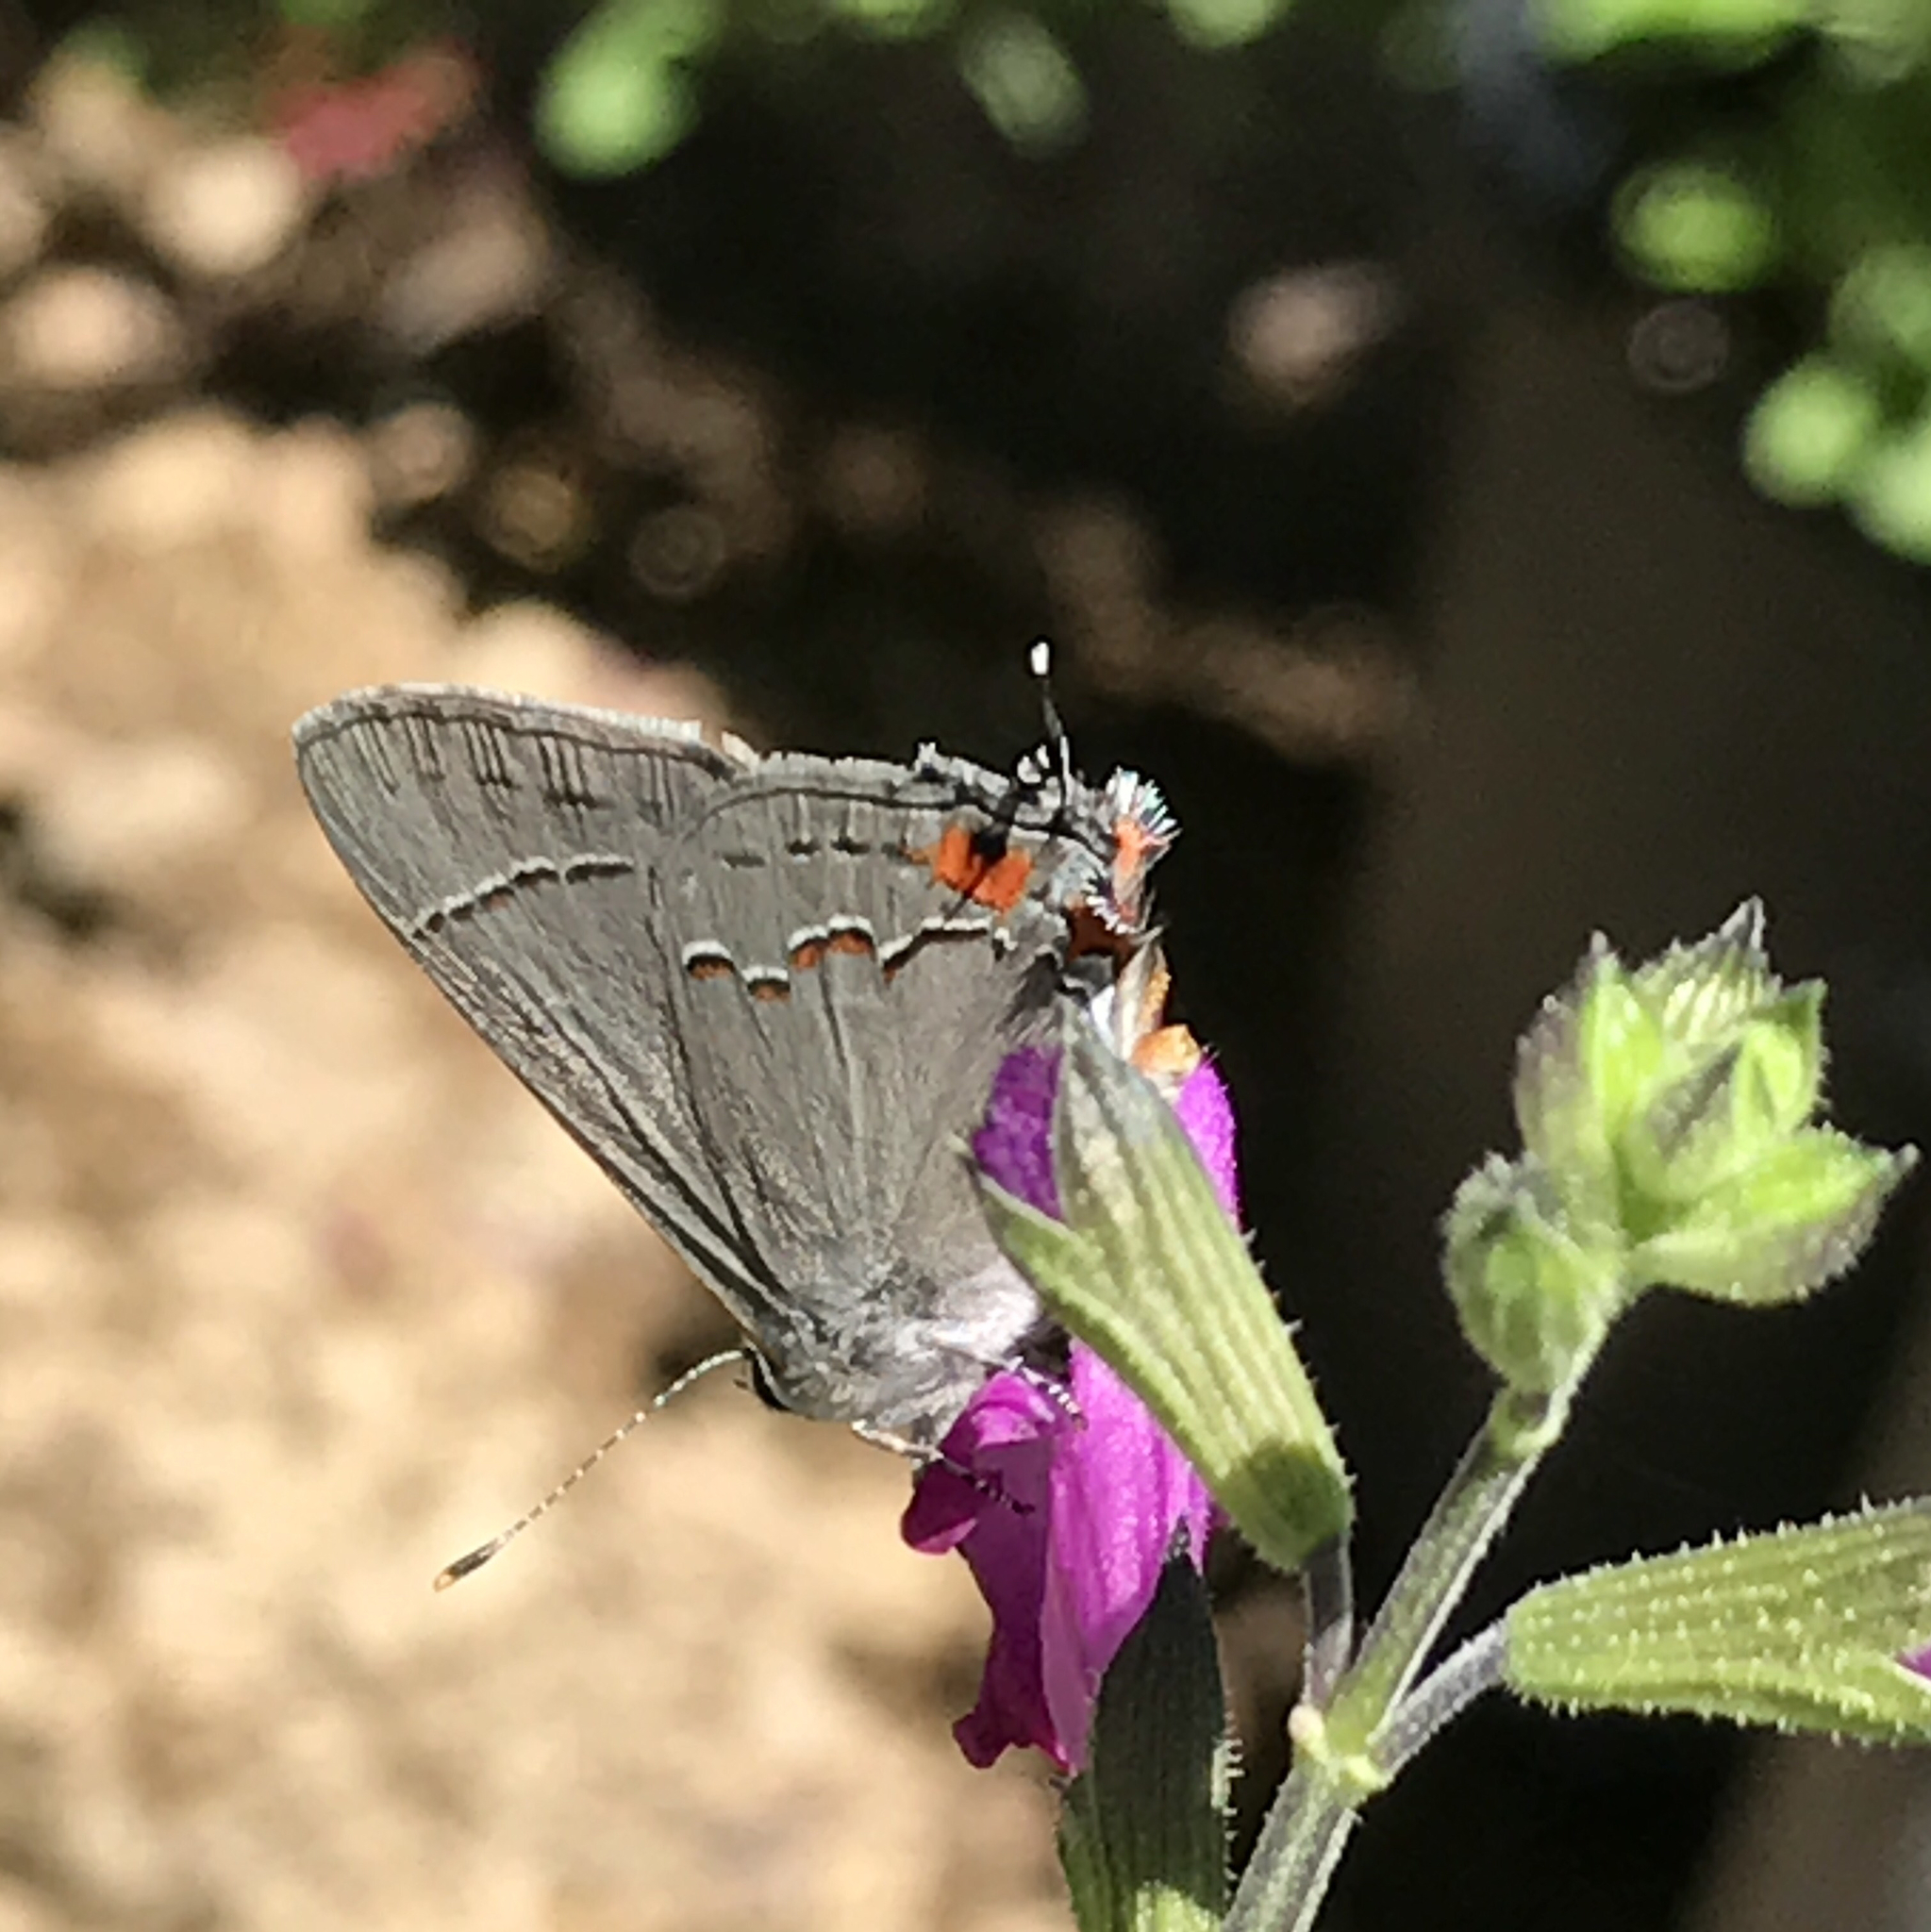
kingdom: Animalia
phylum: Arthropoda
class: Insecta
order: Lepidoptera
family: Lycaenidae
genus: Strymon
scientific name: Strymon melinus
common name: Gray hairstreak
